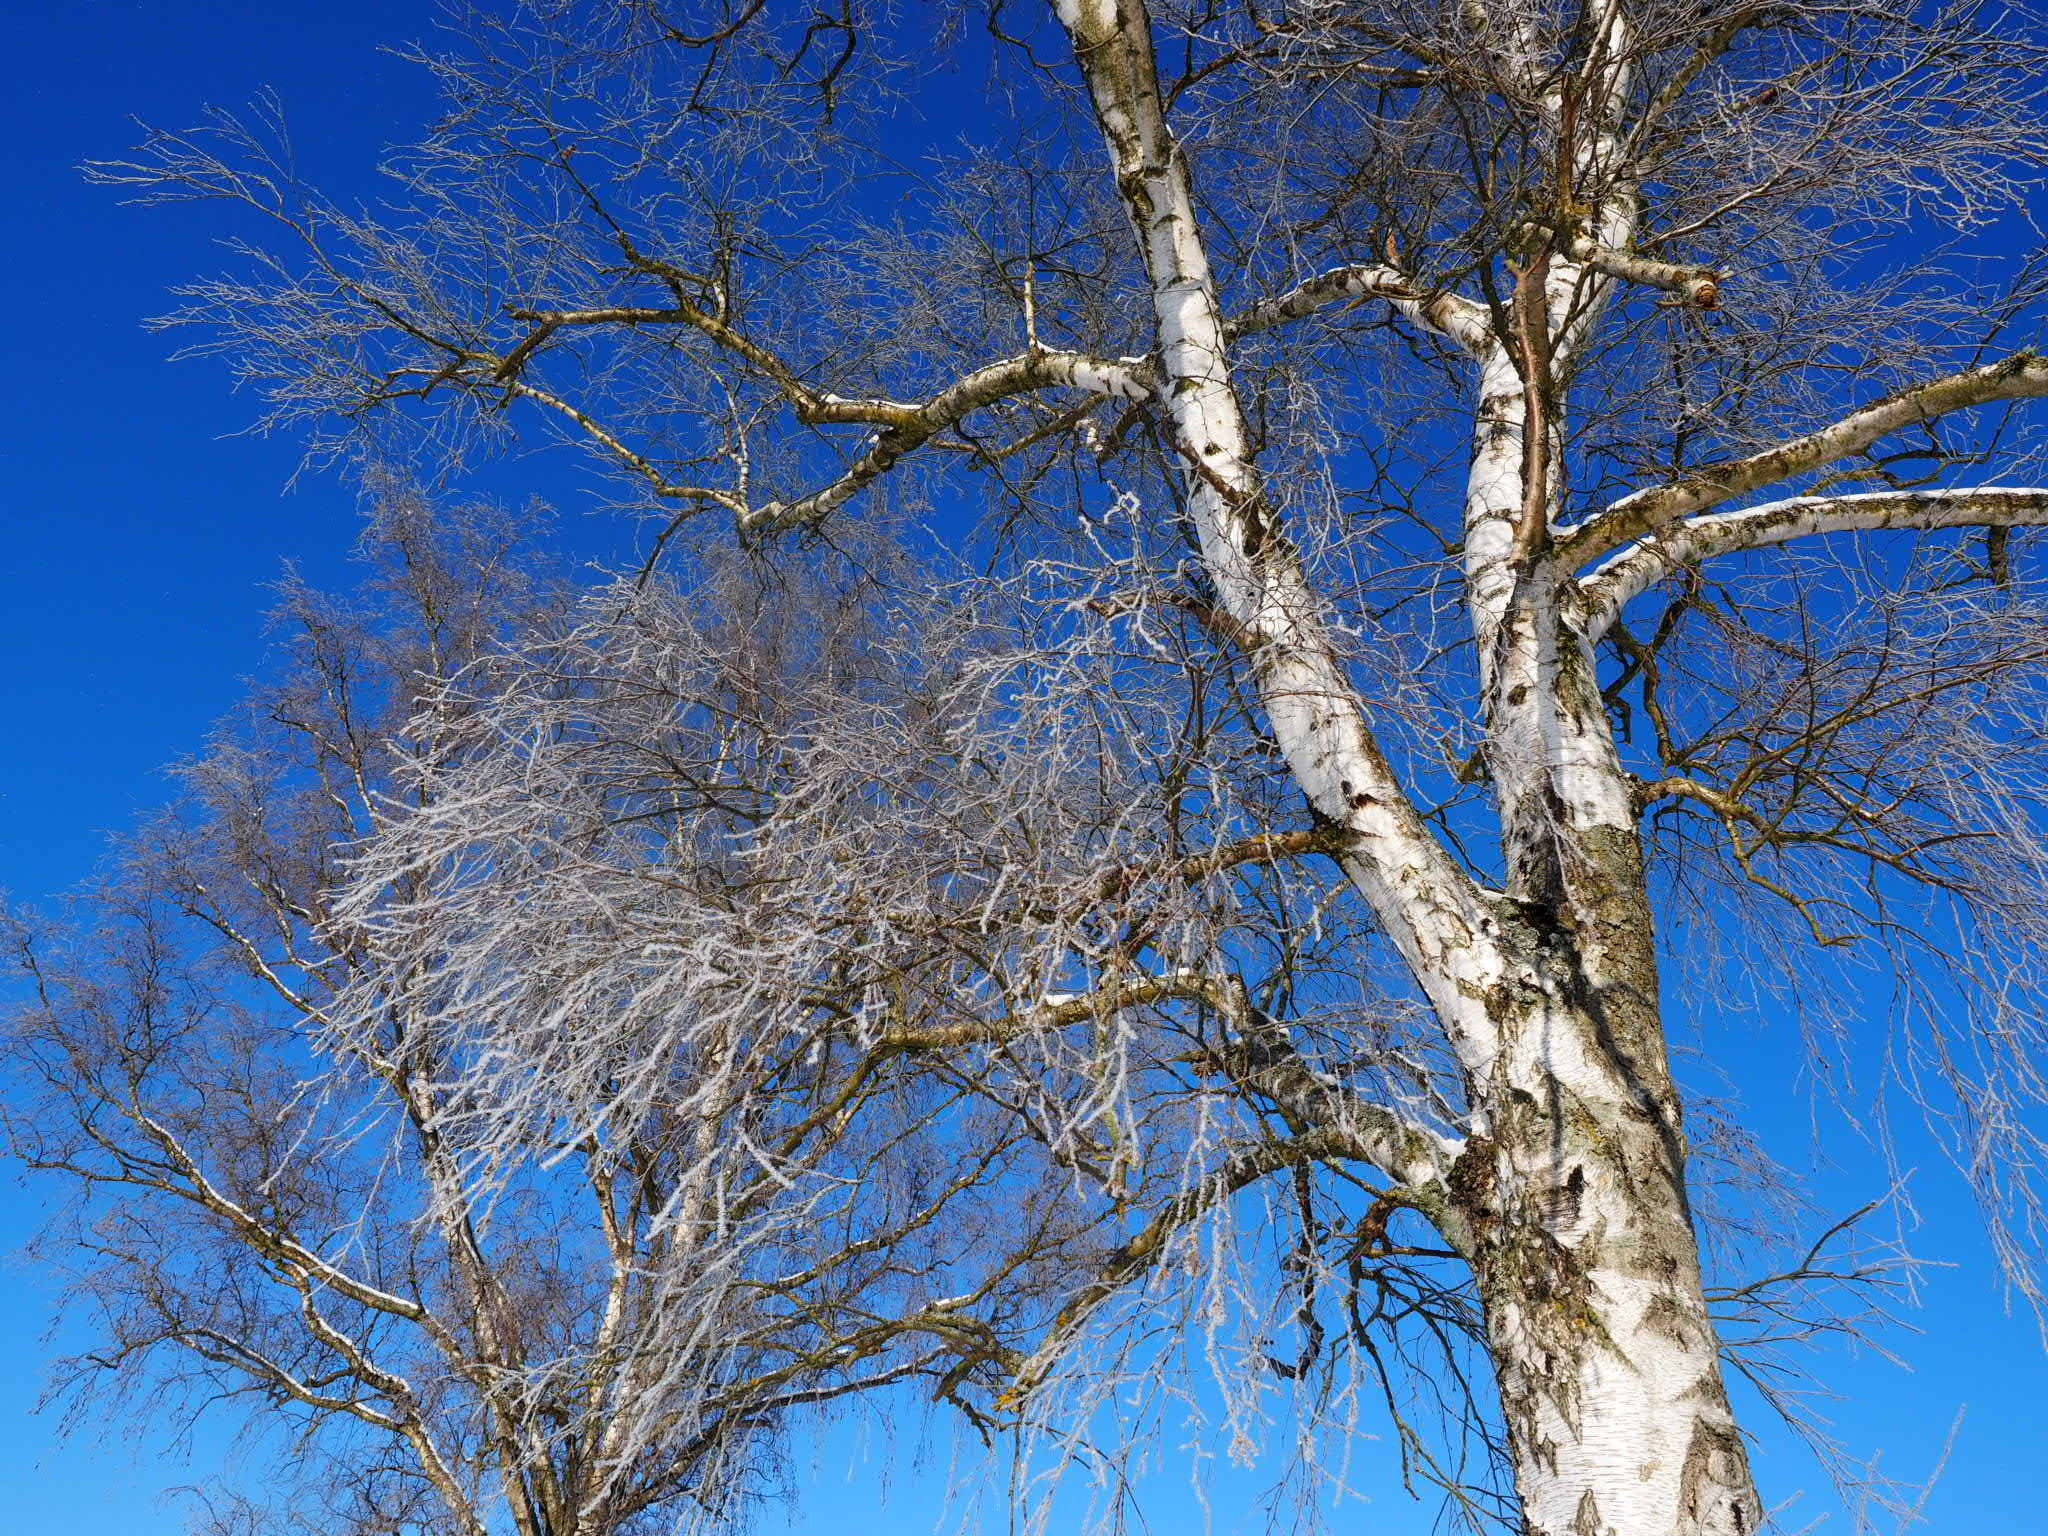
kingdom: Plantae
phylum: Tracheophyta
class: Magnoliopsida
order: Fagales
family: Betulaceae
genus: Betula
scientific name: Betula pendula
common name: Silver birch
